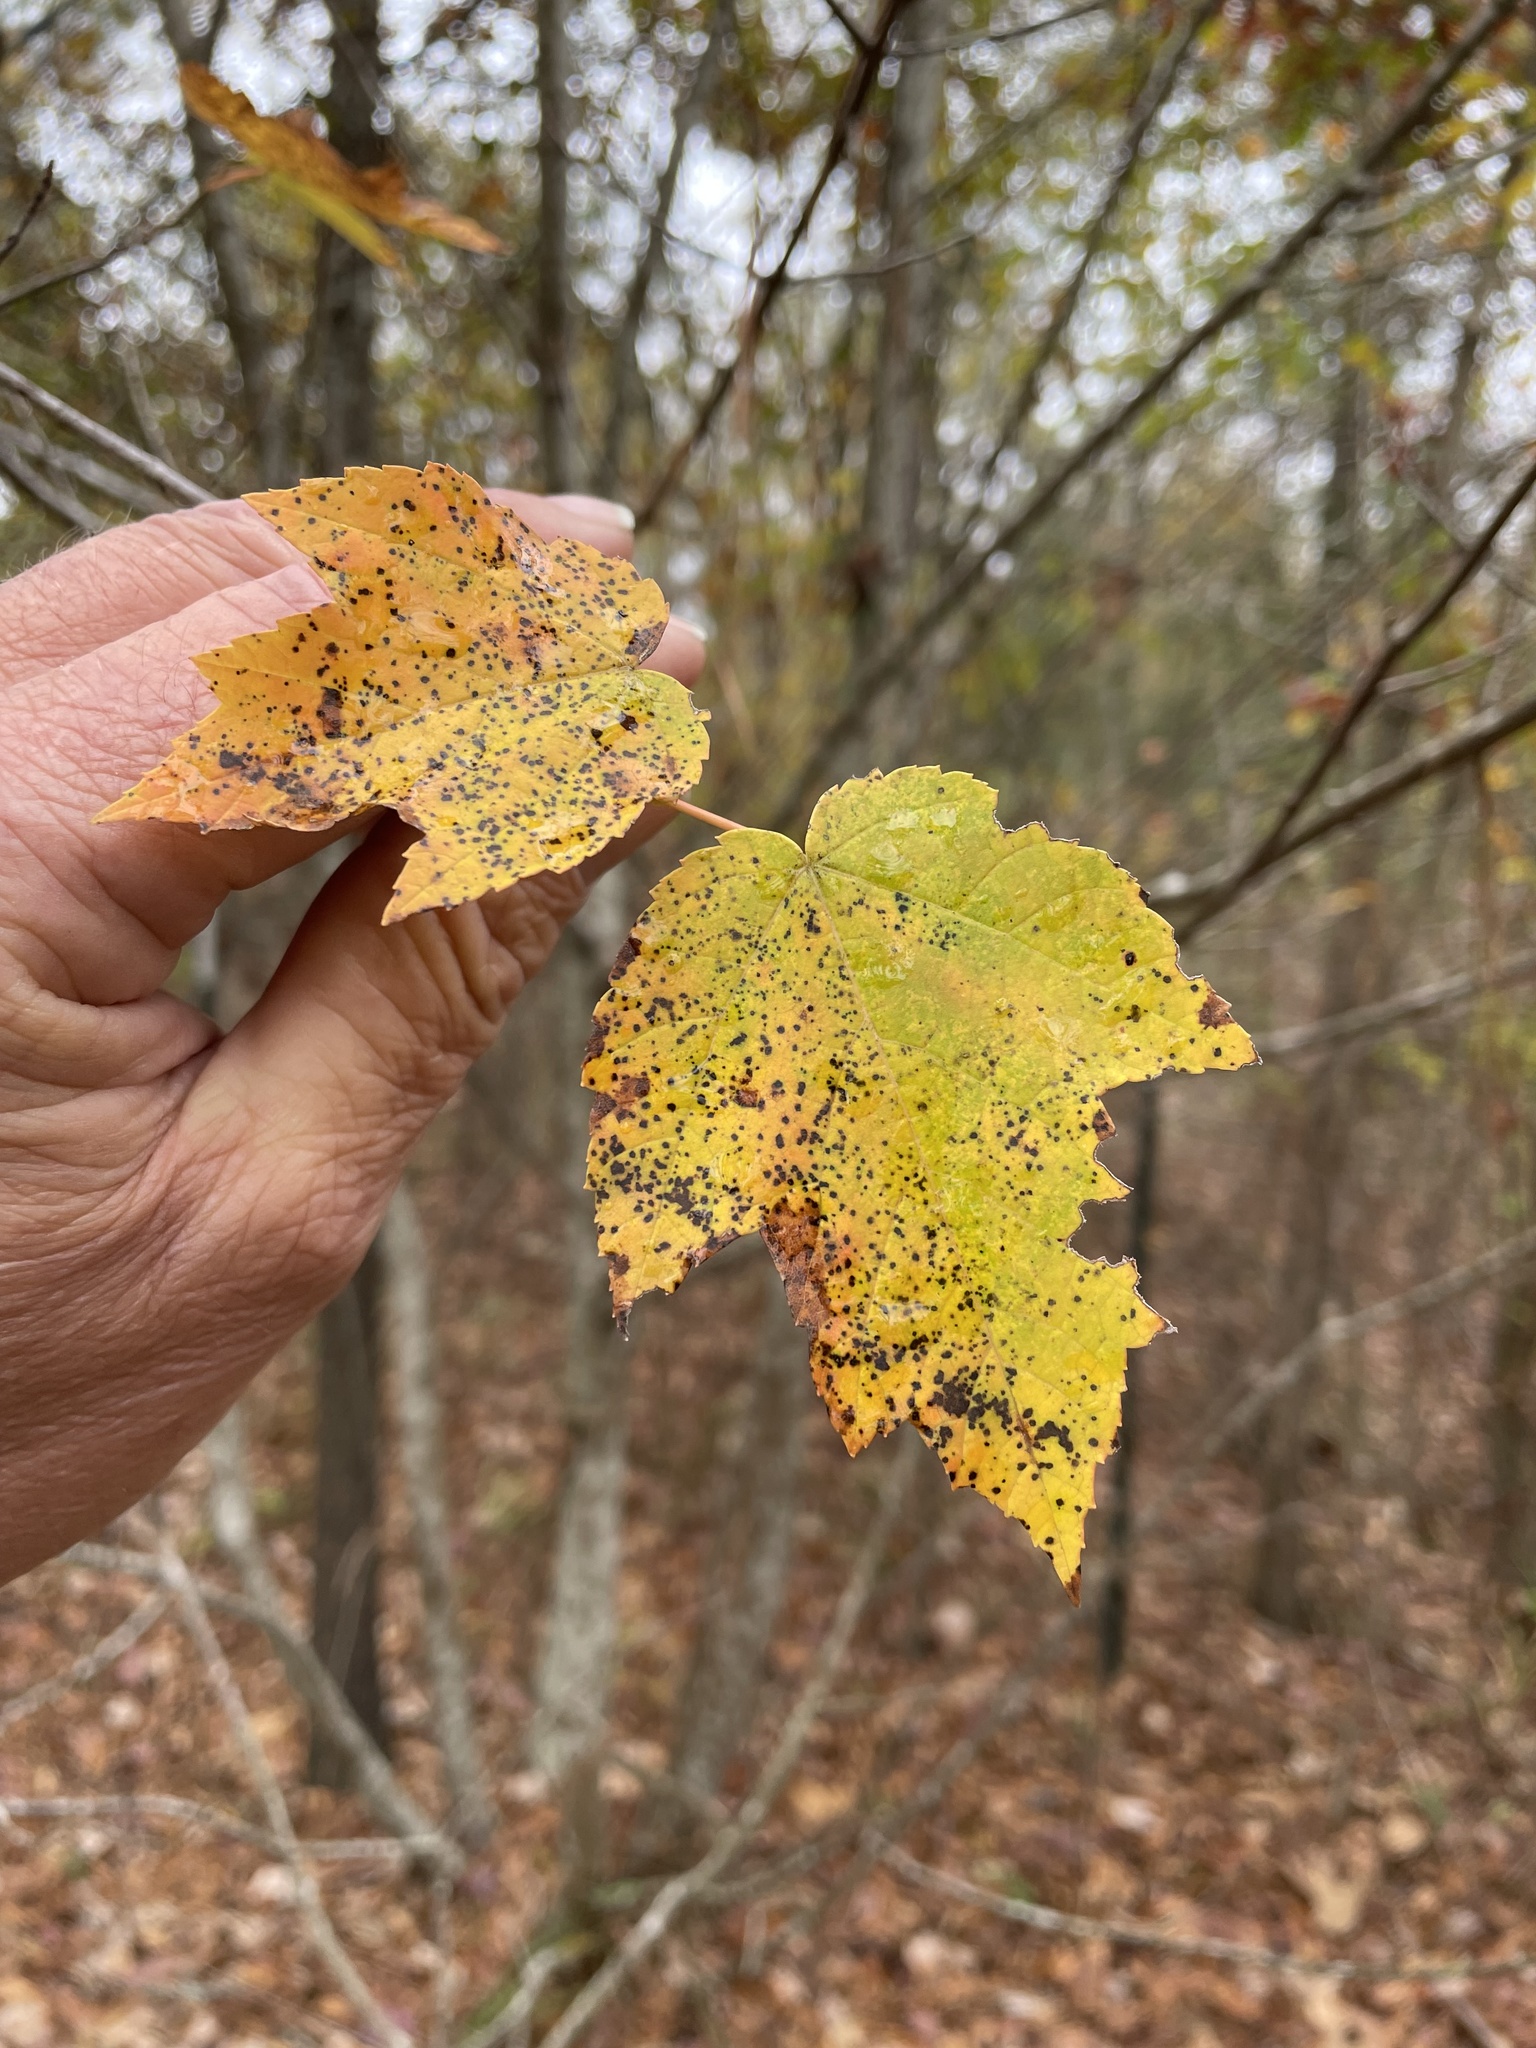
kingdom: Plantae
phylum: Tracheophyta
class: Magnoliopsida
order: Sapindales
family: Sapindaceae
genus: Acer
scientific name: Acer rubrum
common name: Red maple
